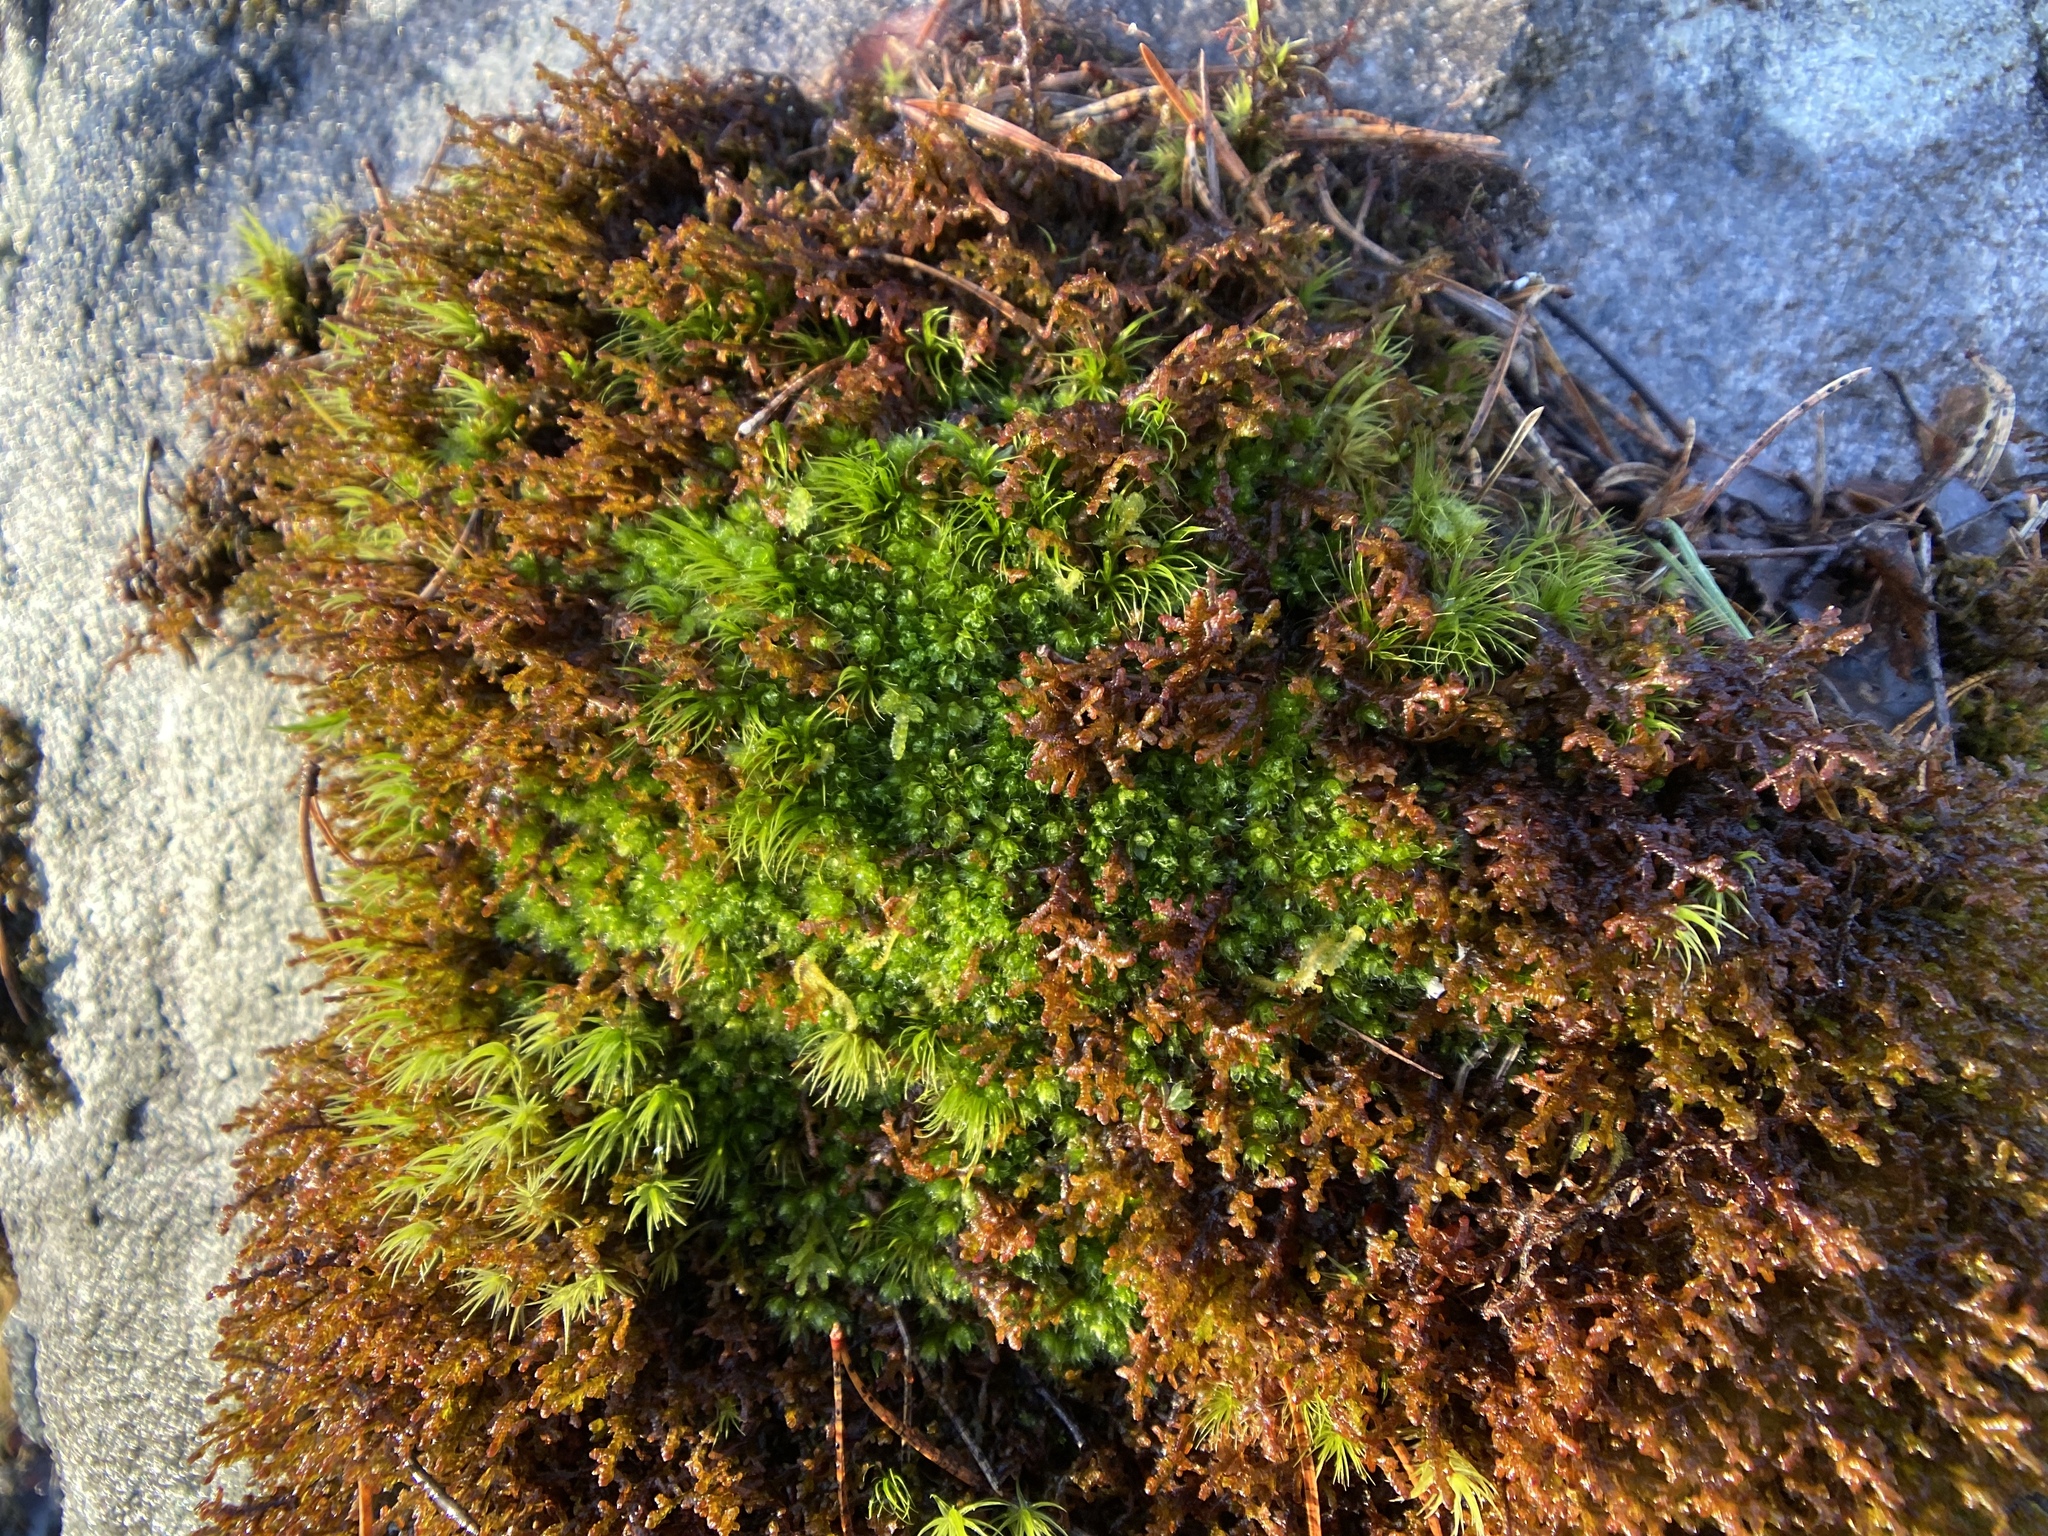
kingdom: Plantae
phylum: Bryophyta
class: Bryopsida
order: Bryales
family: Bryaceae
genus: Rosulabryum
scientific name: Rosulabryum capillare
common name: Capillary thread-moss
